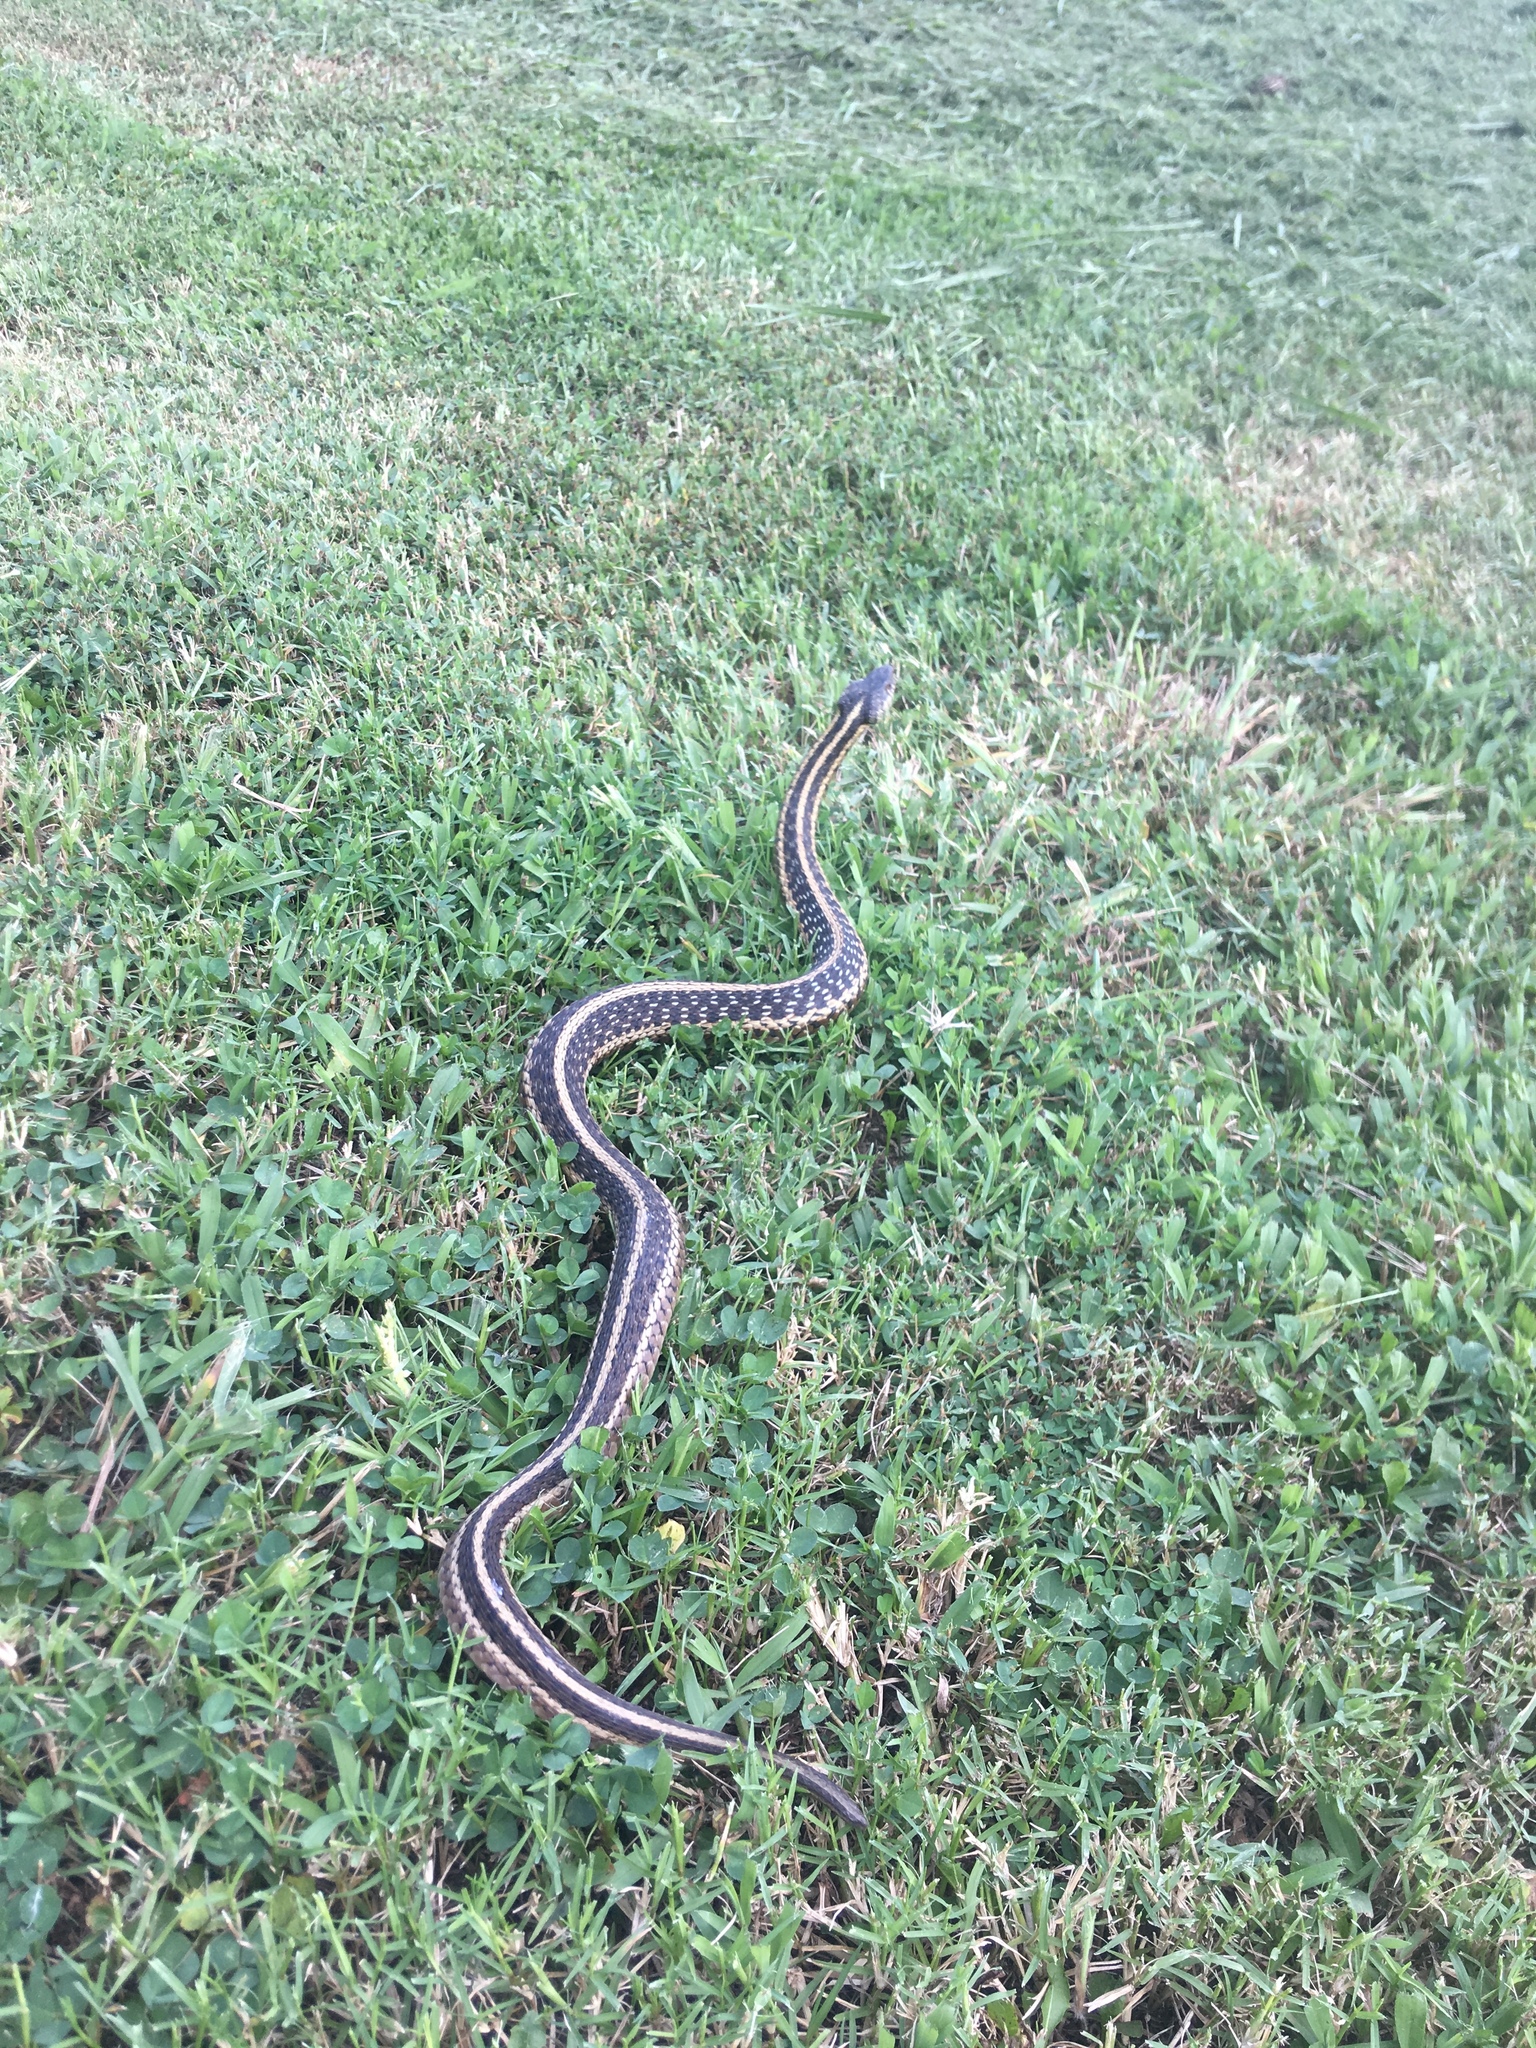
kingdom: Animalia
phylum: Chordata
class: Squamata
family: Colubridae
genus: Thamnophis
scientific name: Thamnophis sirtalis
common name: Common garter snake
